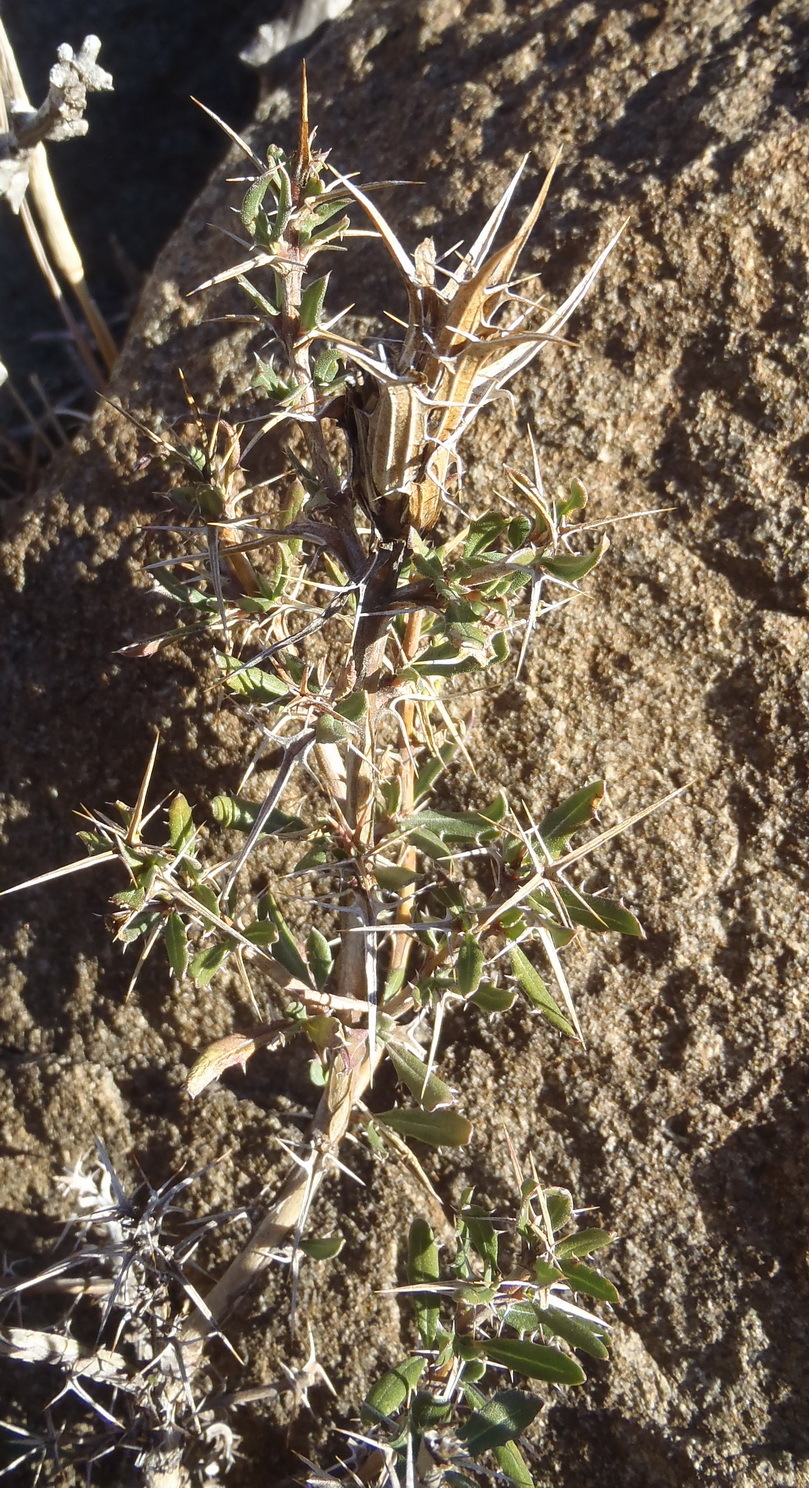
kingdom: Plantae
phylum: Tracheophyta
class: Magnoliopsida
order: Lamiales
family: Acanthaceae
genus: Blepharis
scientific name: Blepharis capensis
